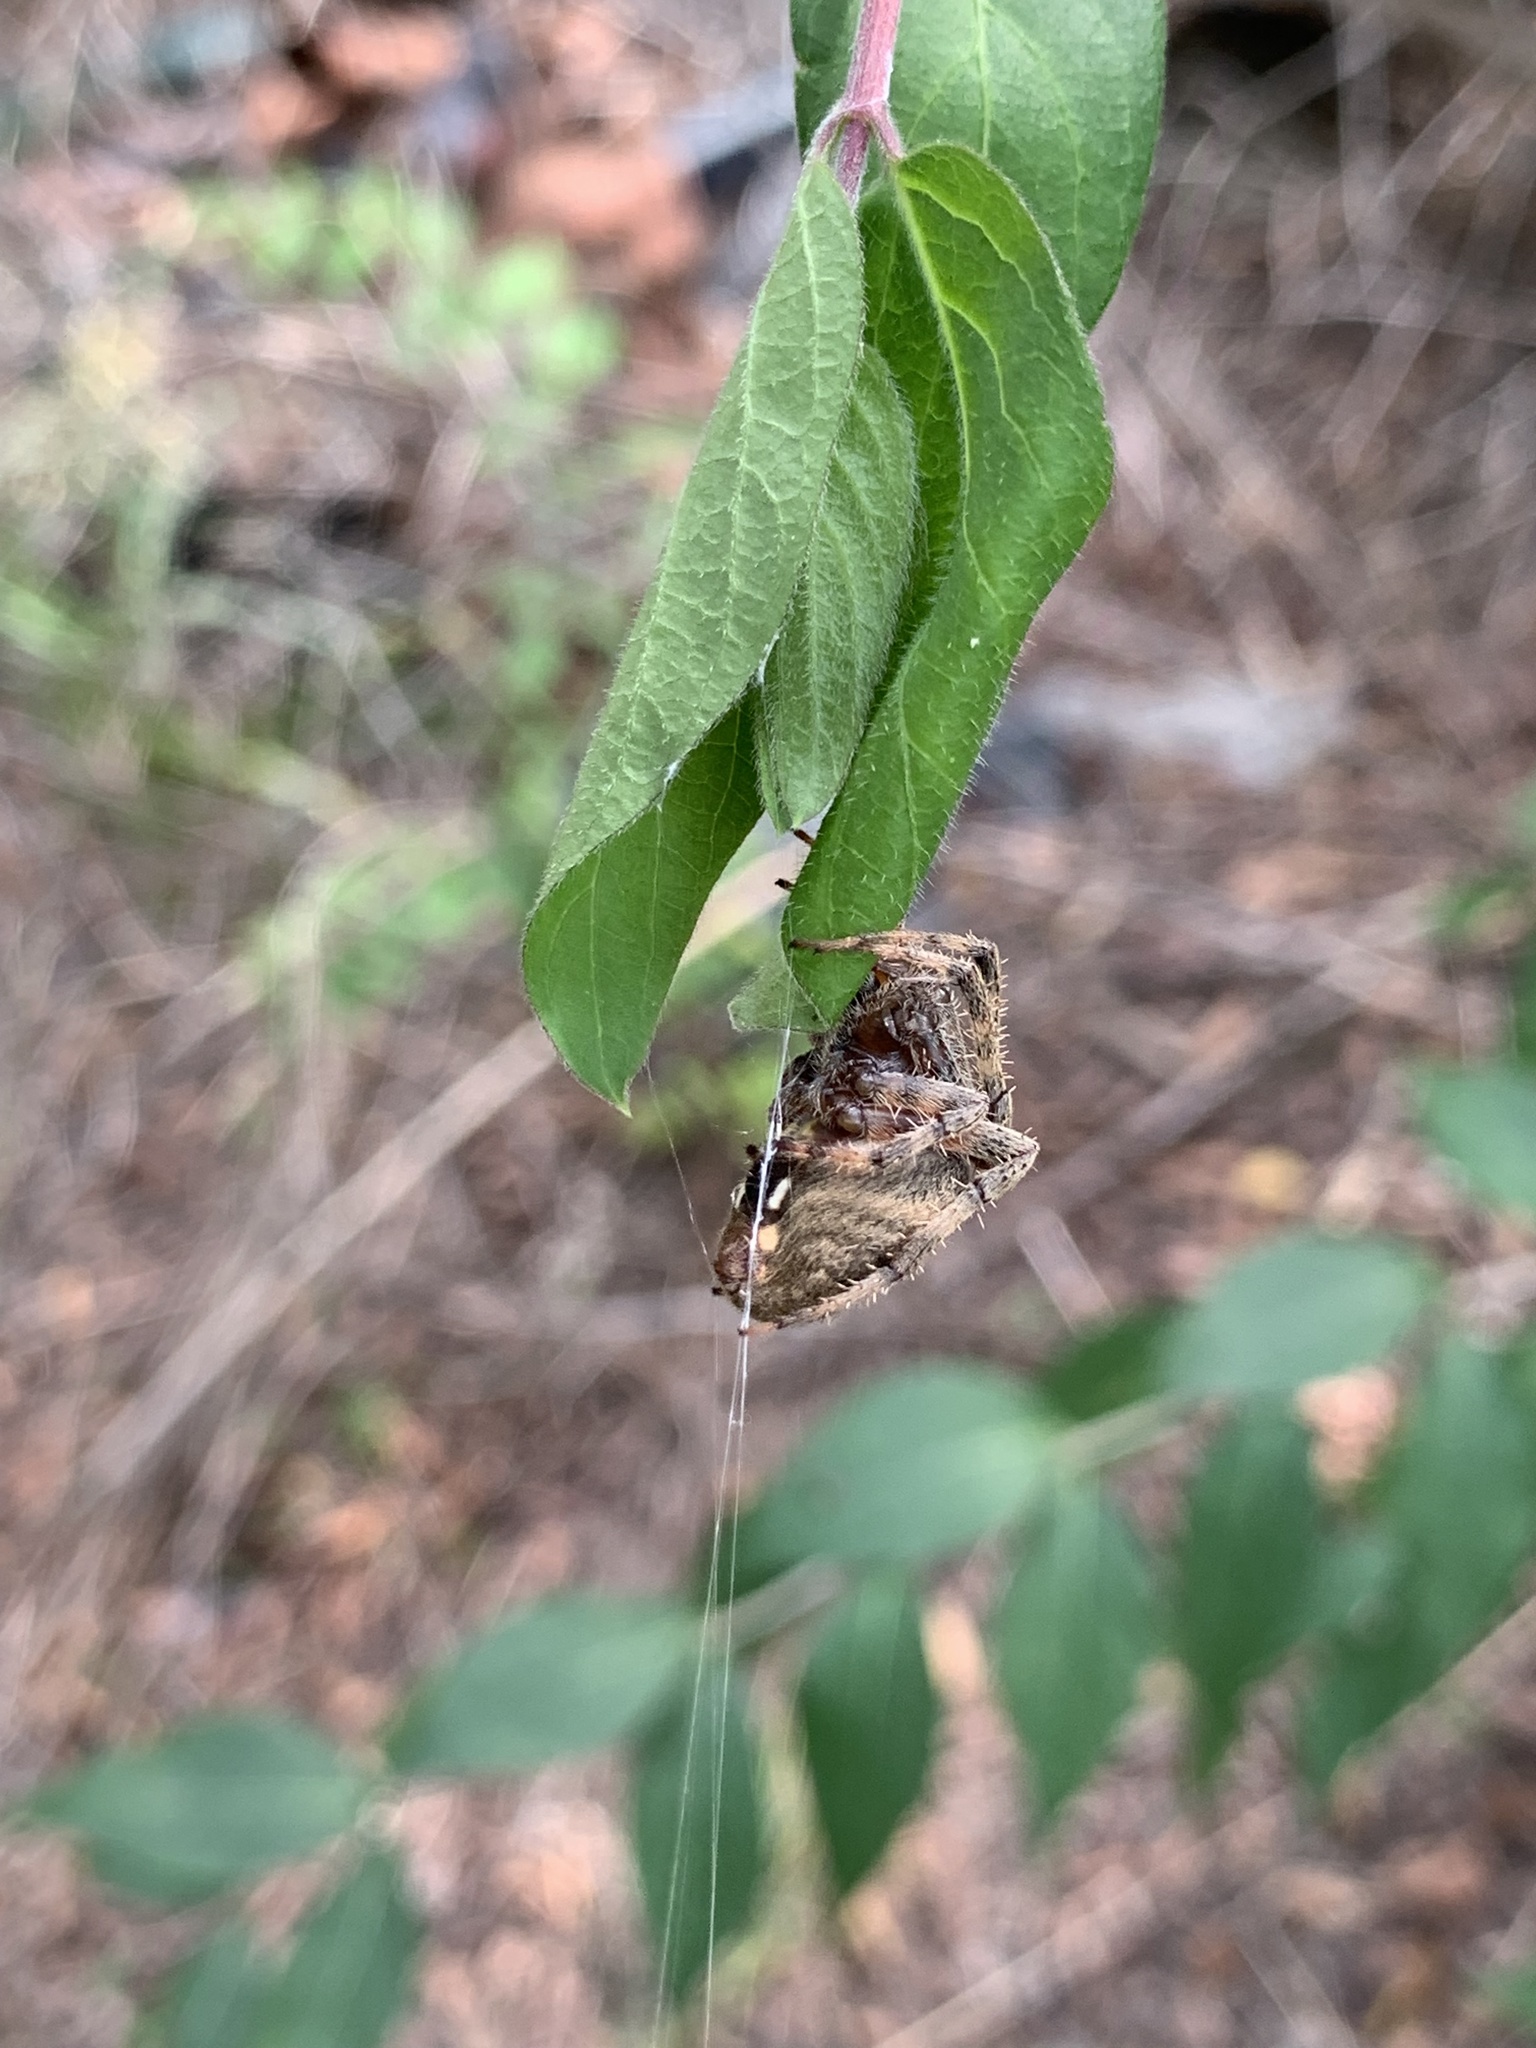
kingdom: Animalia
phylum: Arthropoda
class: Arachnida
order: Araneae
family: Araneidae
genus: Neoscona
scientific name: Neoscona crucifera
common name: Spotted orbweaver
